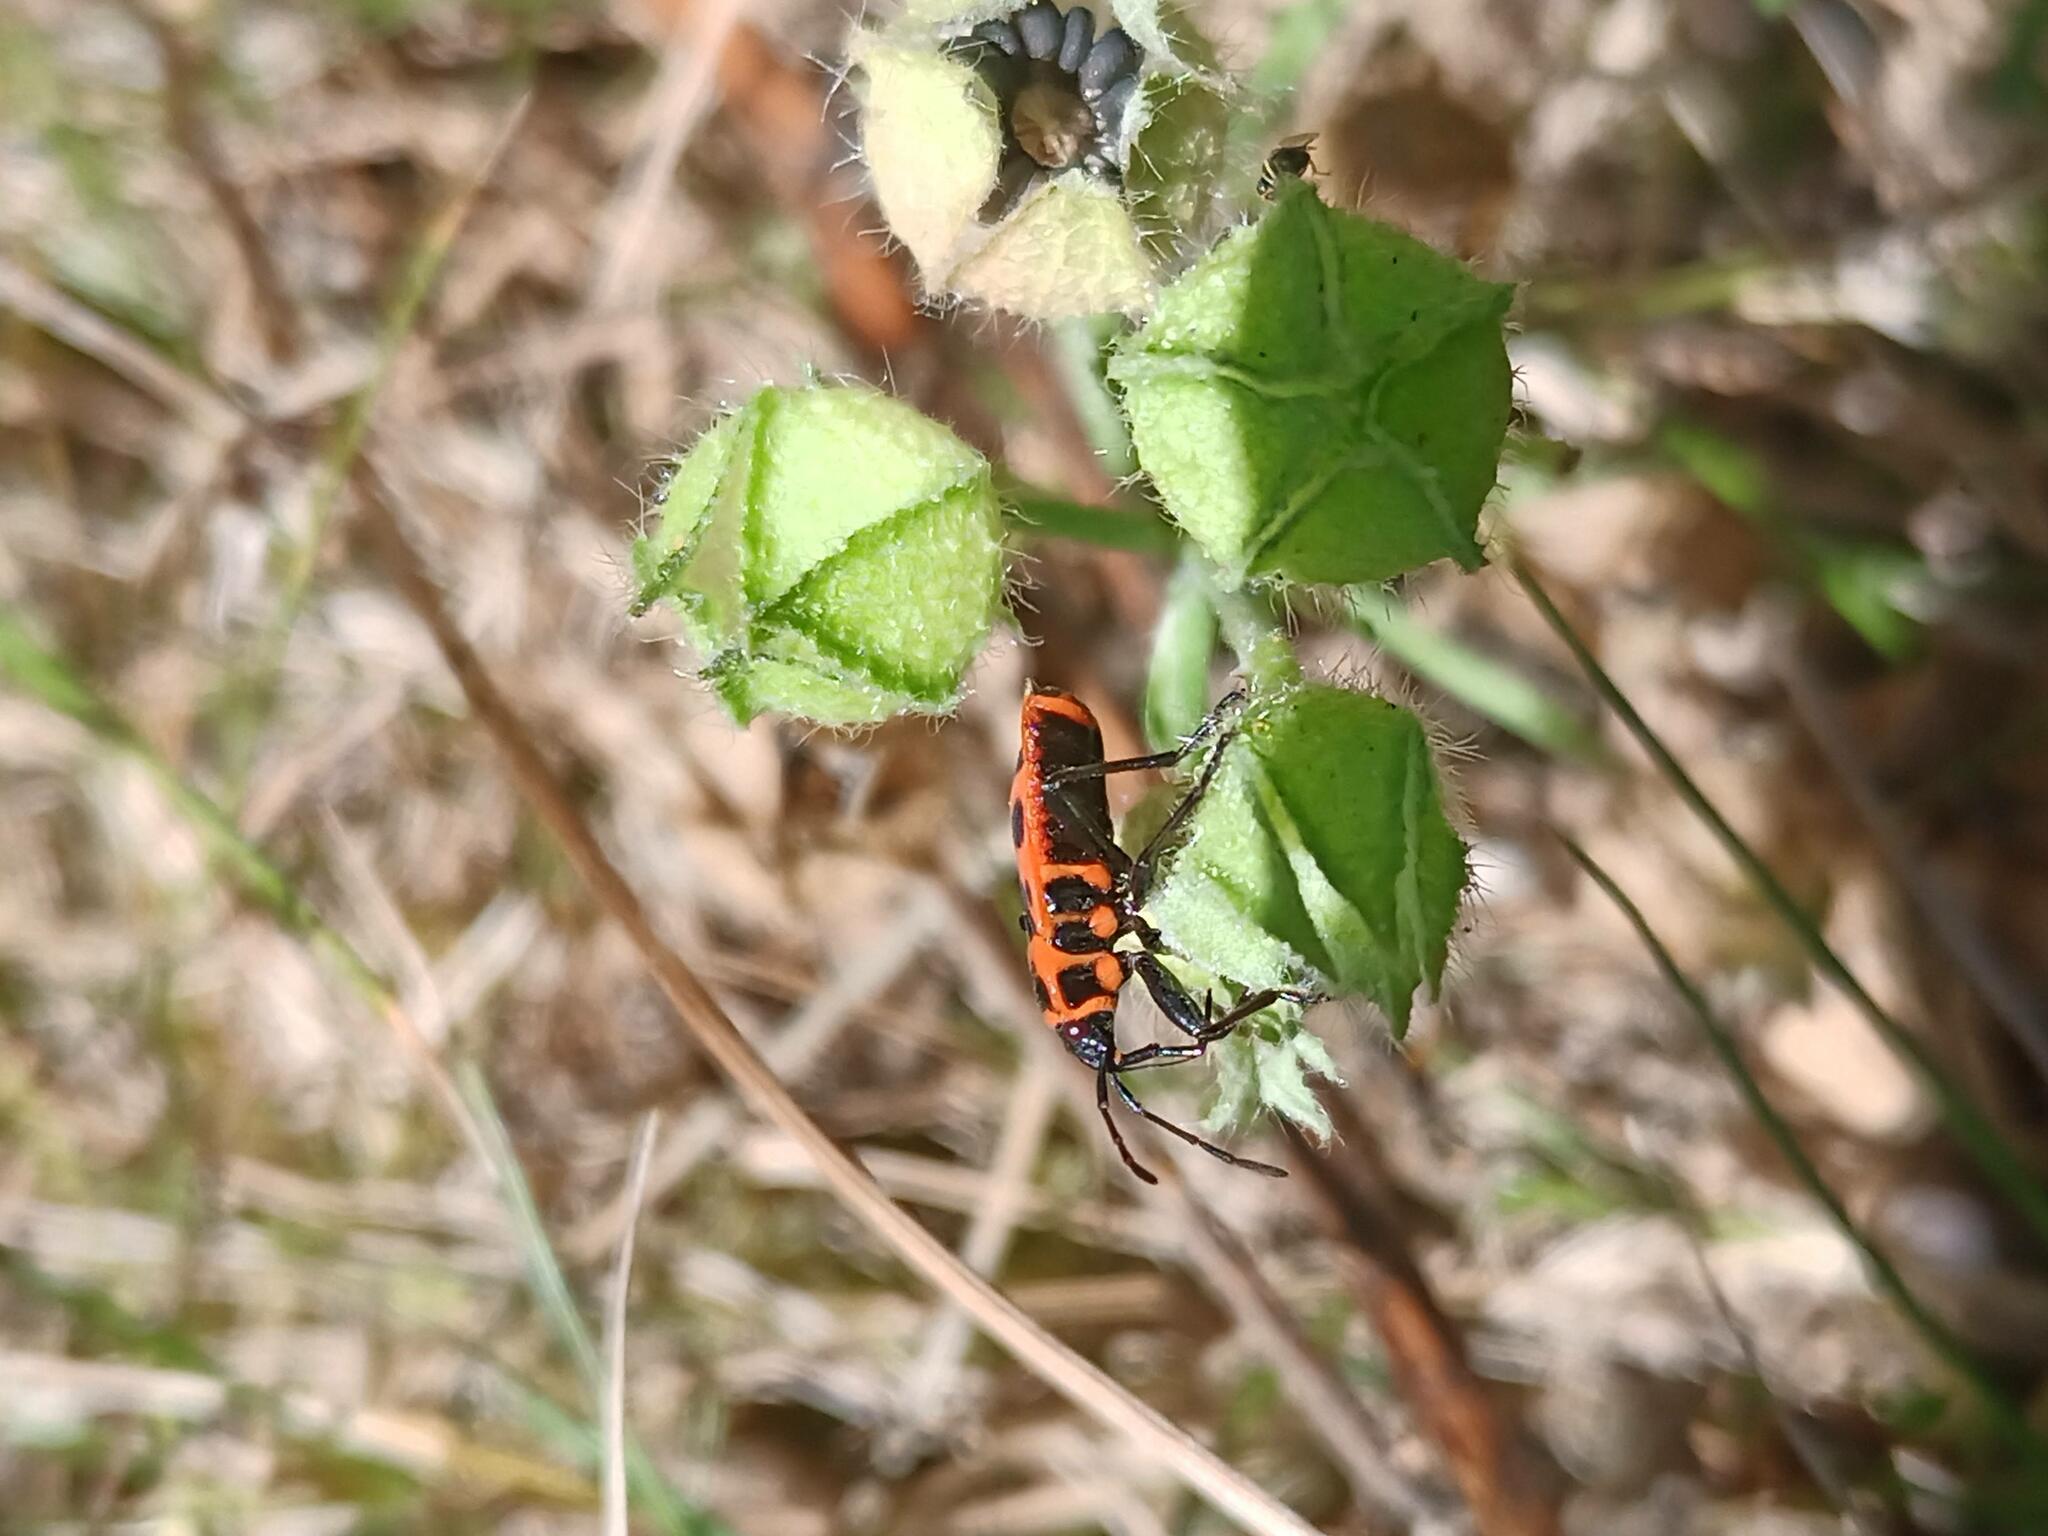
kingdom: Animalia
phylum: Arthropoda
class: Insecta
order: Hemiptera
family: Pyrrhocoridae
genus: Pyrrhocoris
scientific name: Pyrrhocoris apterus
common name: Firebug
